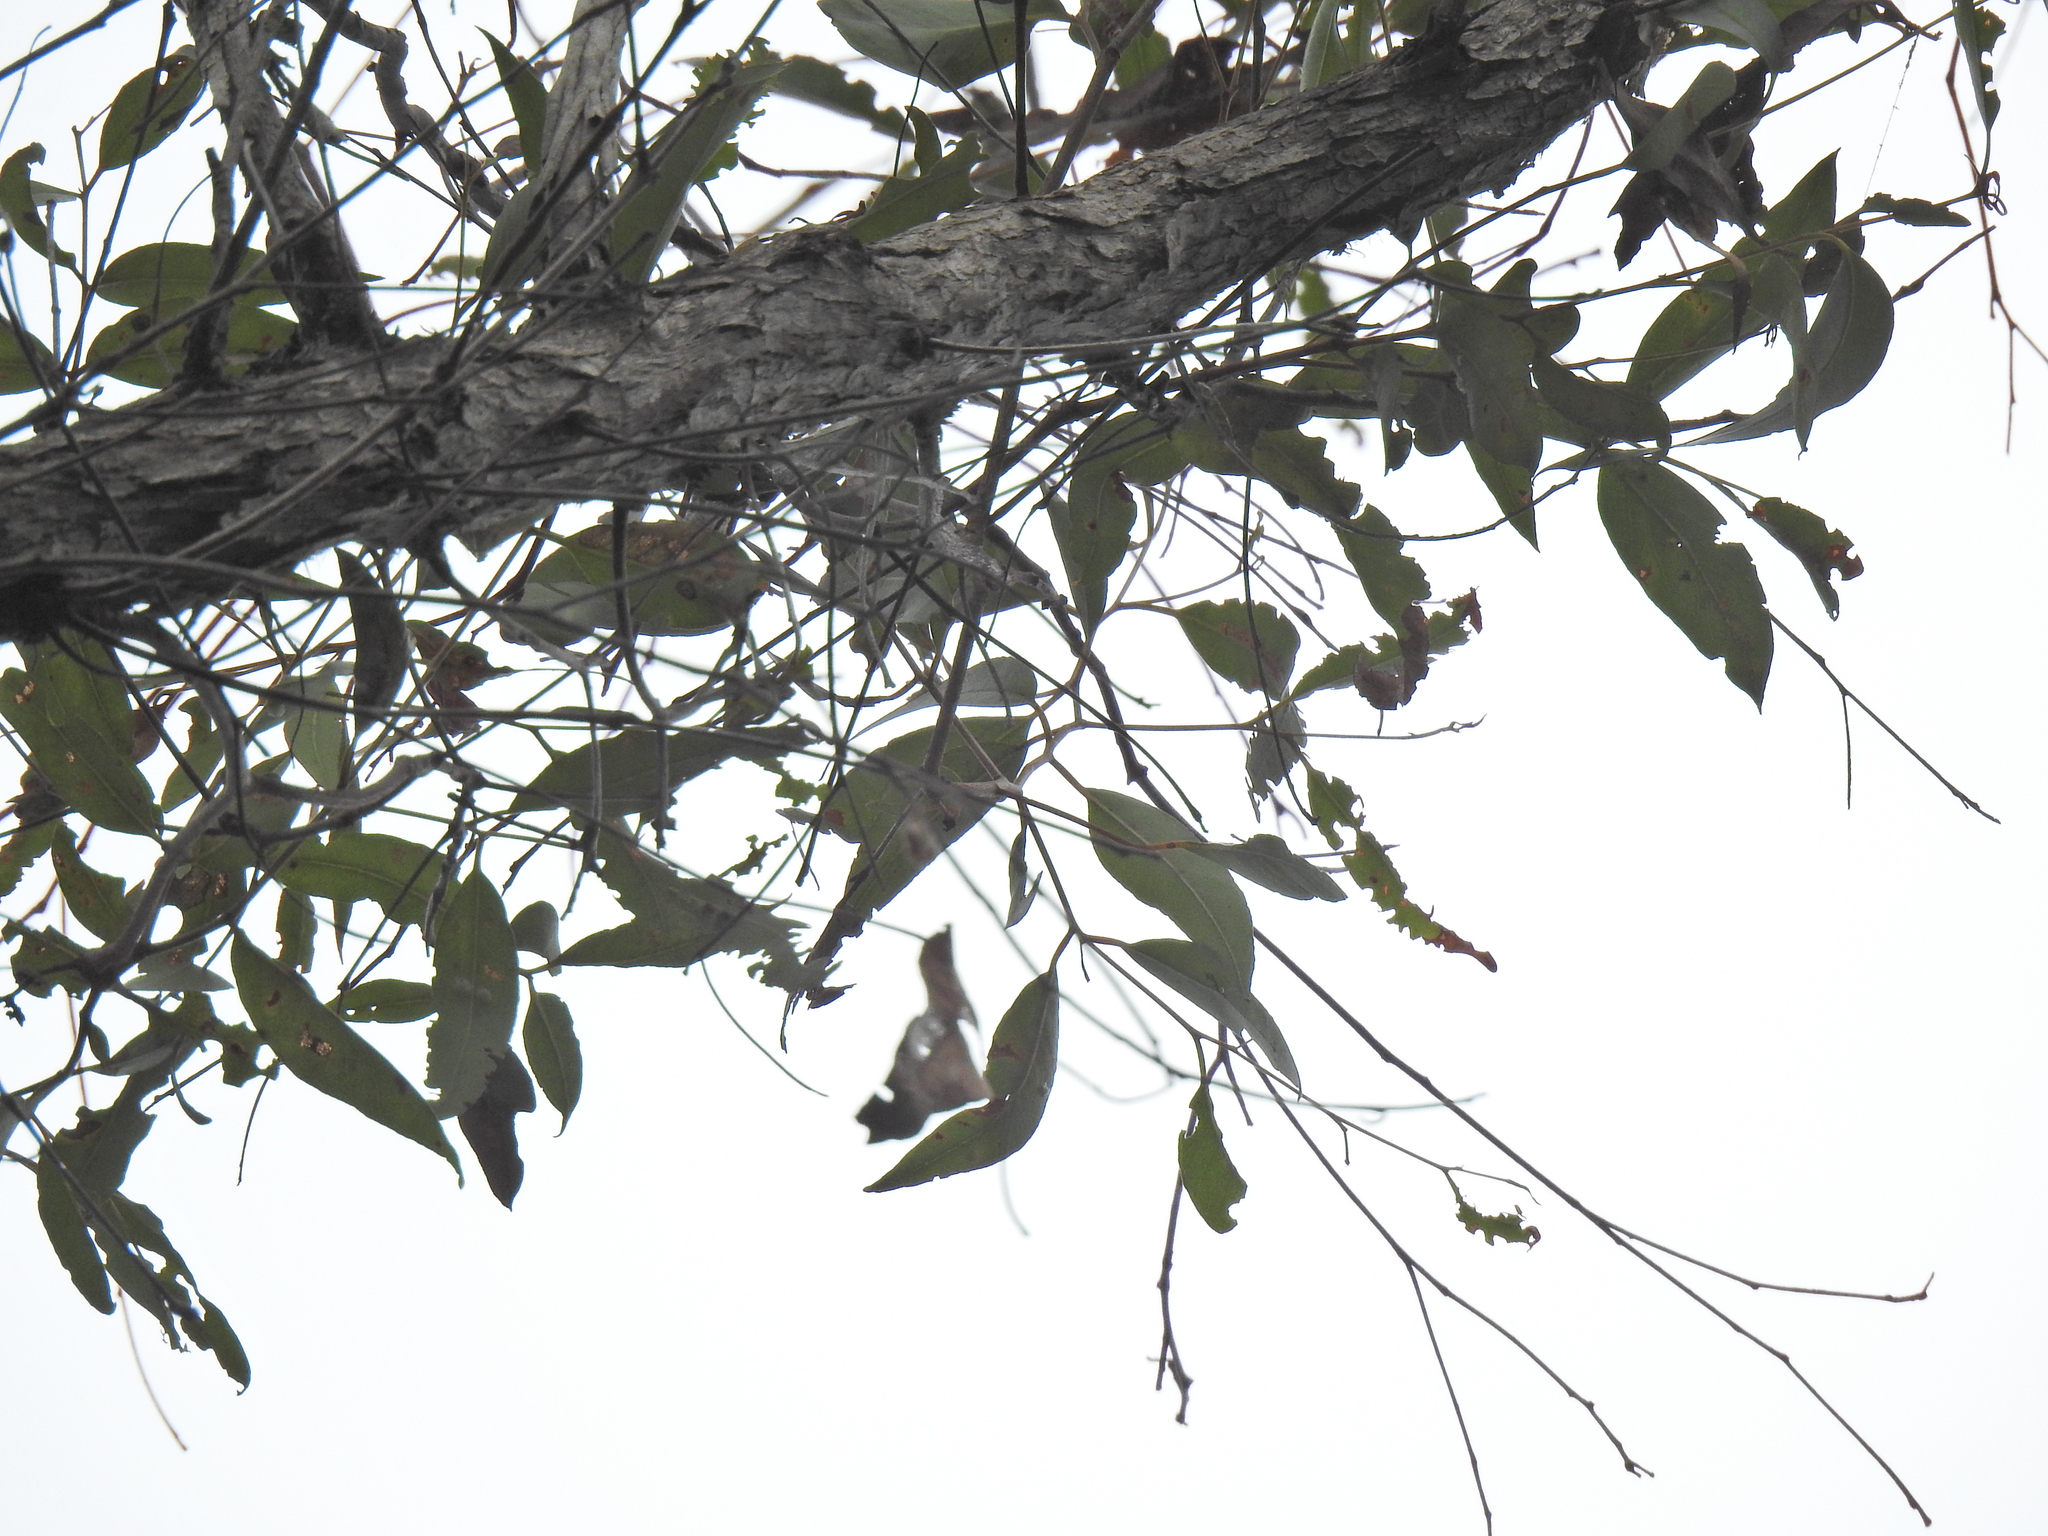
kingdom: Plantae
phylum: Tracheophyta
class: Magnoliopsida
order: Myrtales
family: Myrtaceae
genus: Eucalyptus
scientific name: Eucalyptus acmenoides
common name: White-mahogany
